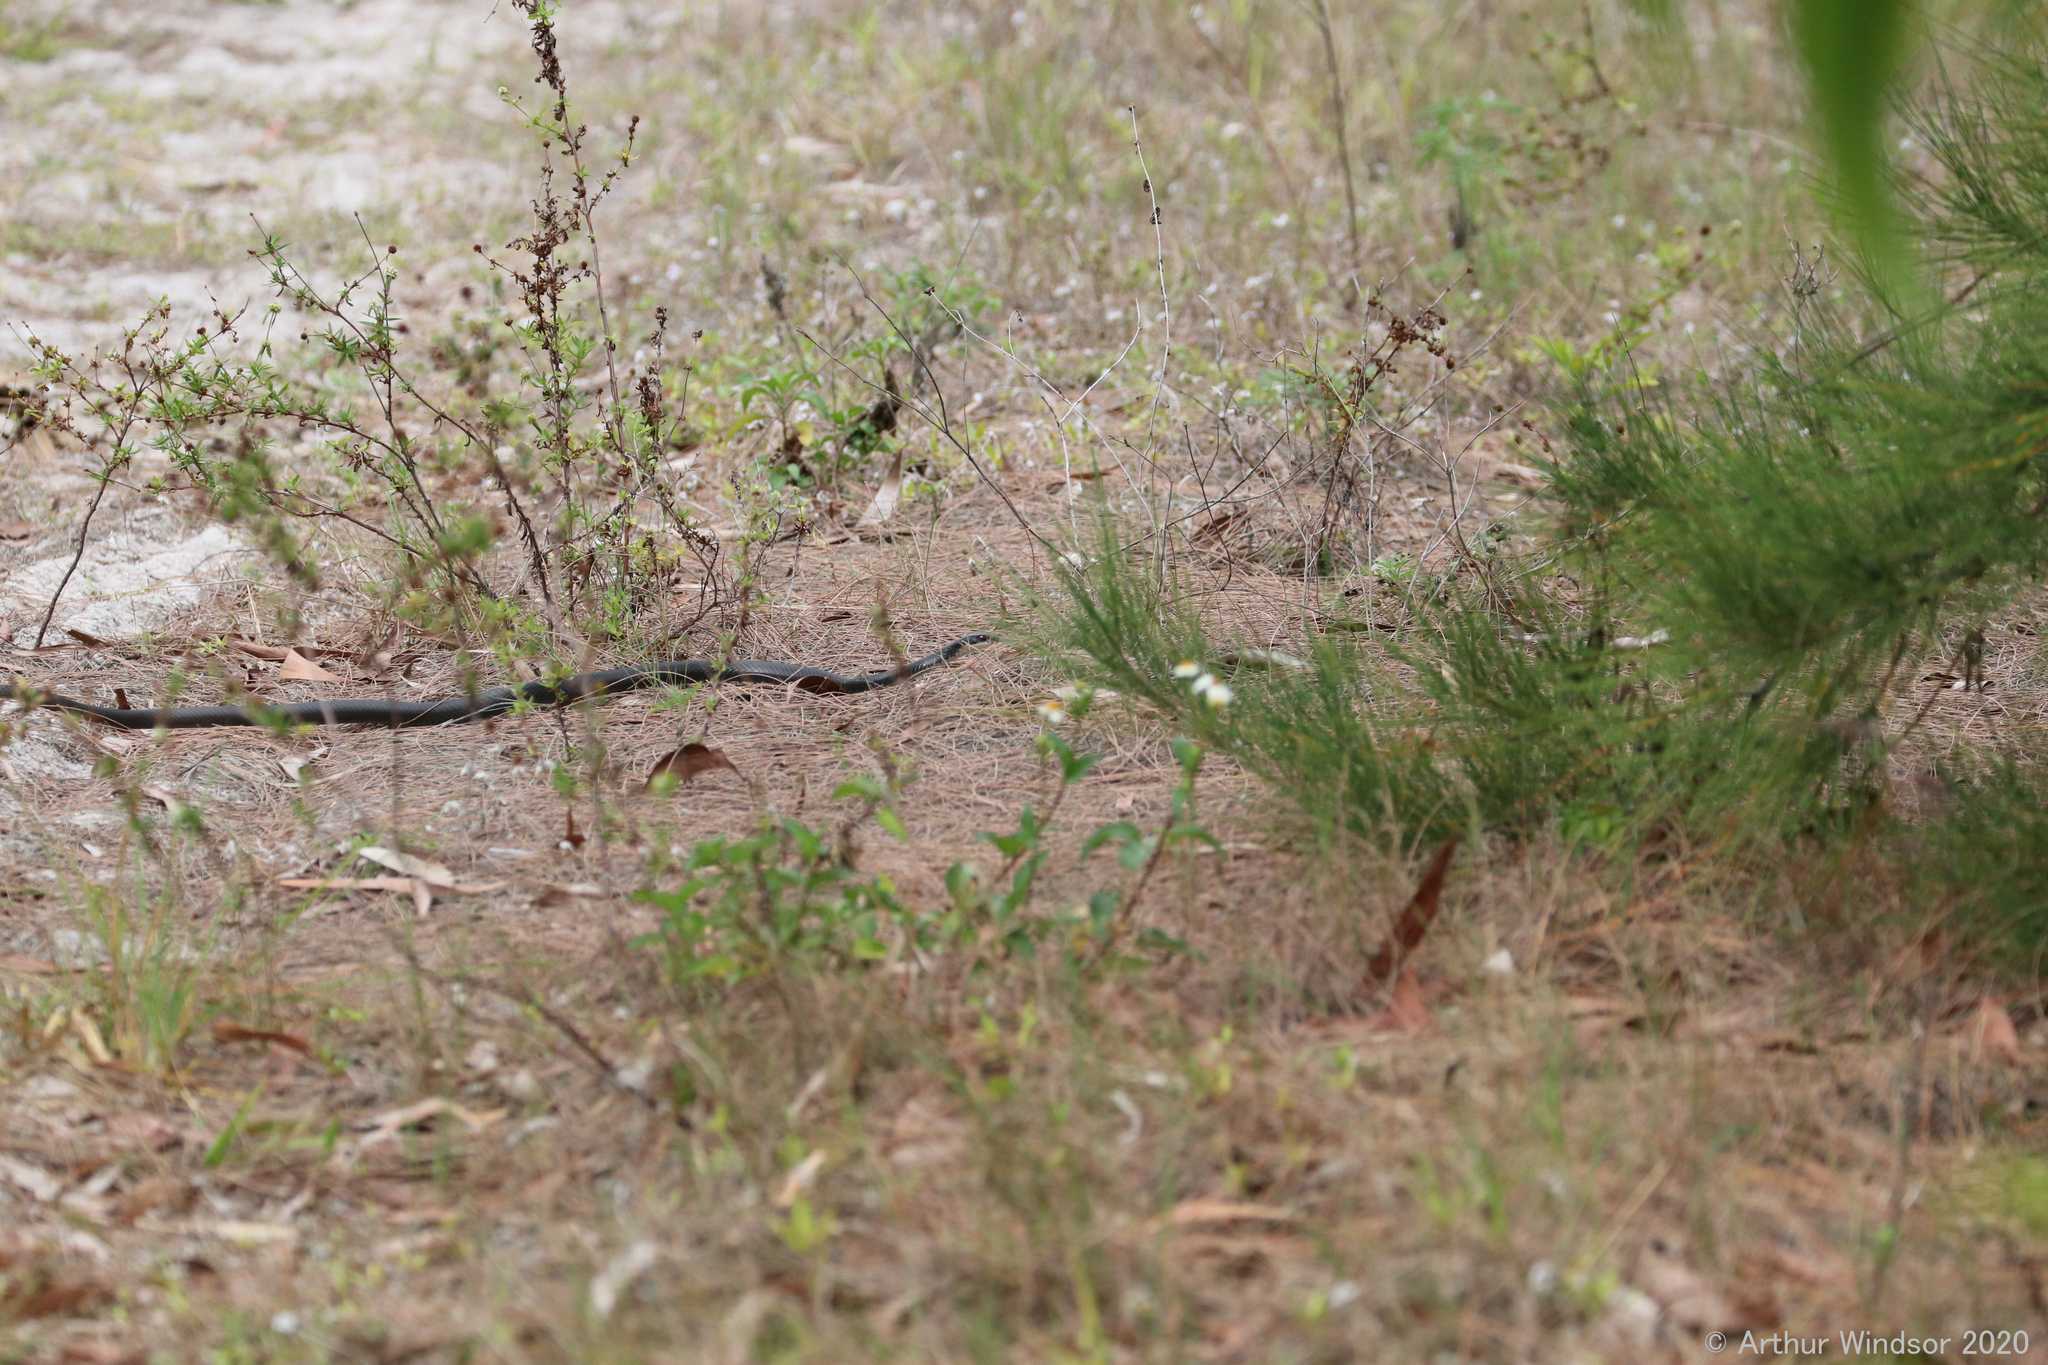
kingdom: Animalia
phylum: Chordata
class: Squamata
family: Colubridae
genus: Coluber
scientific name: Coluber constrictor
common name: Eastern racer
